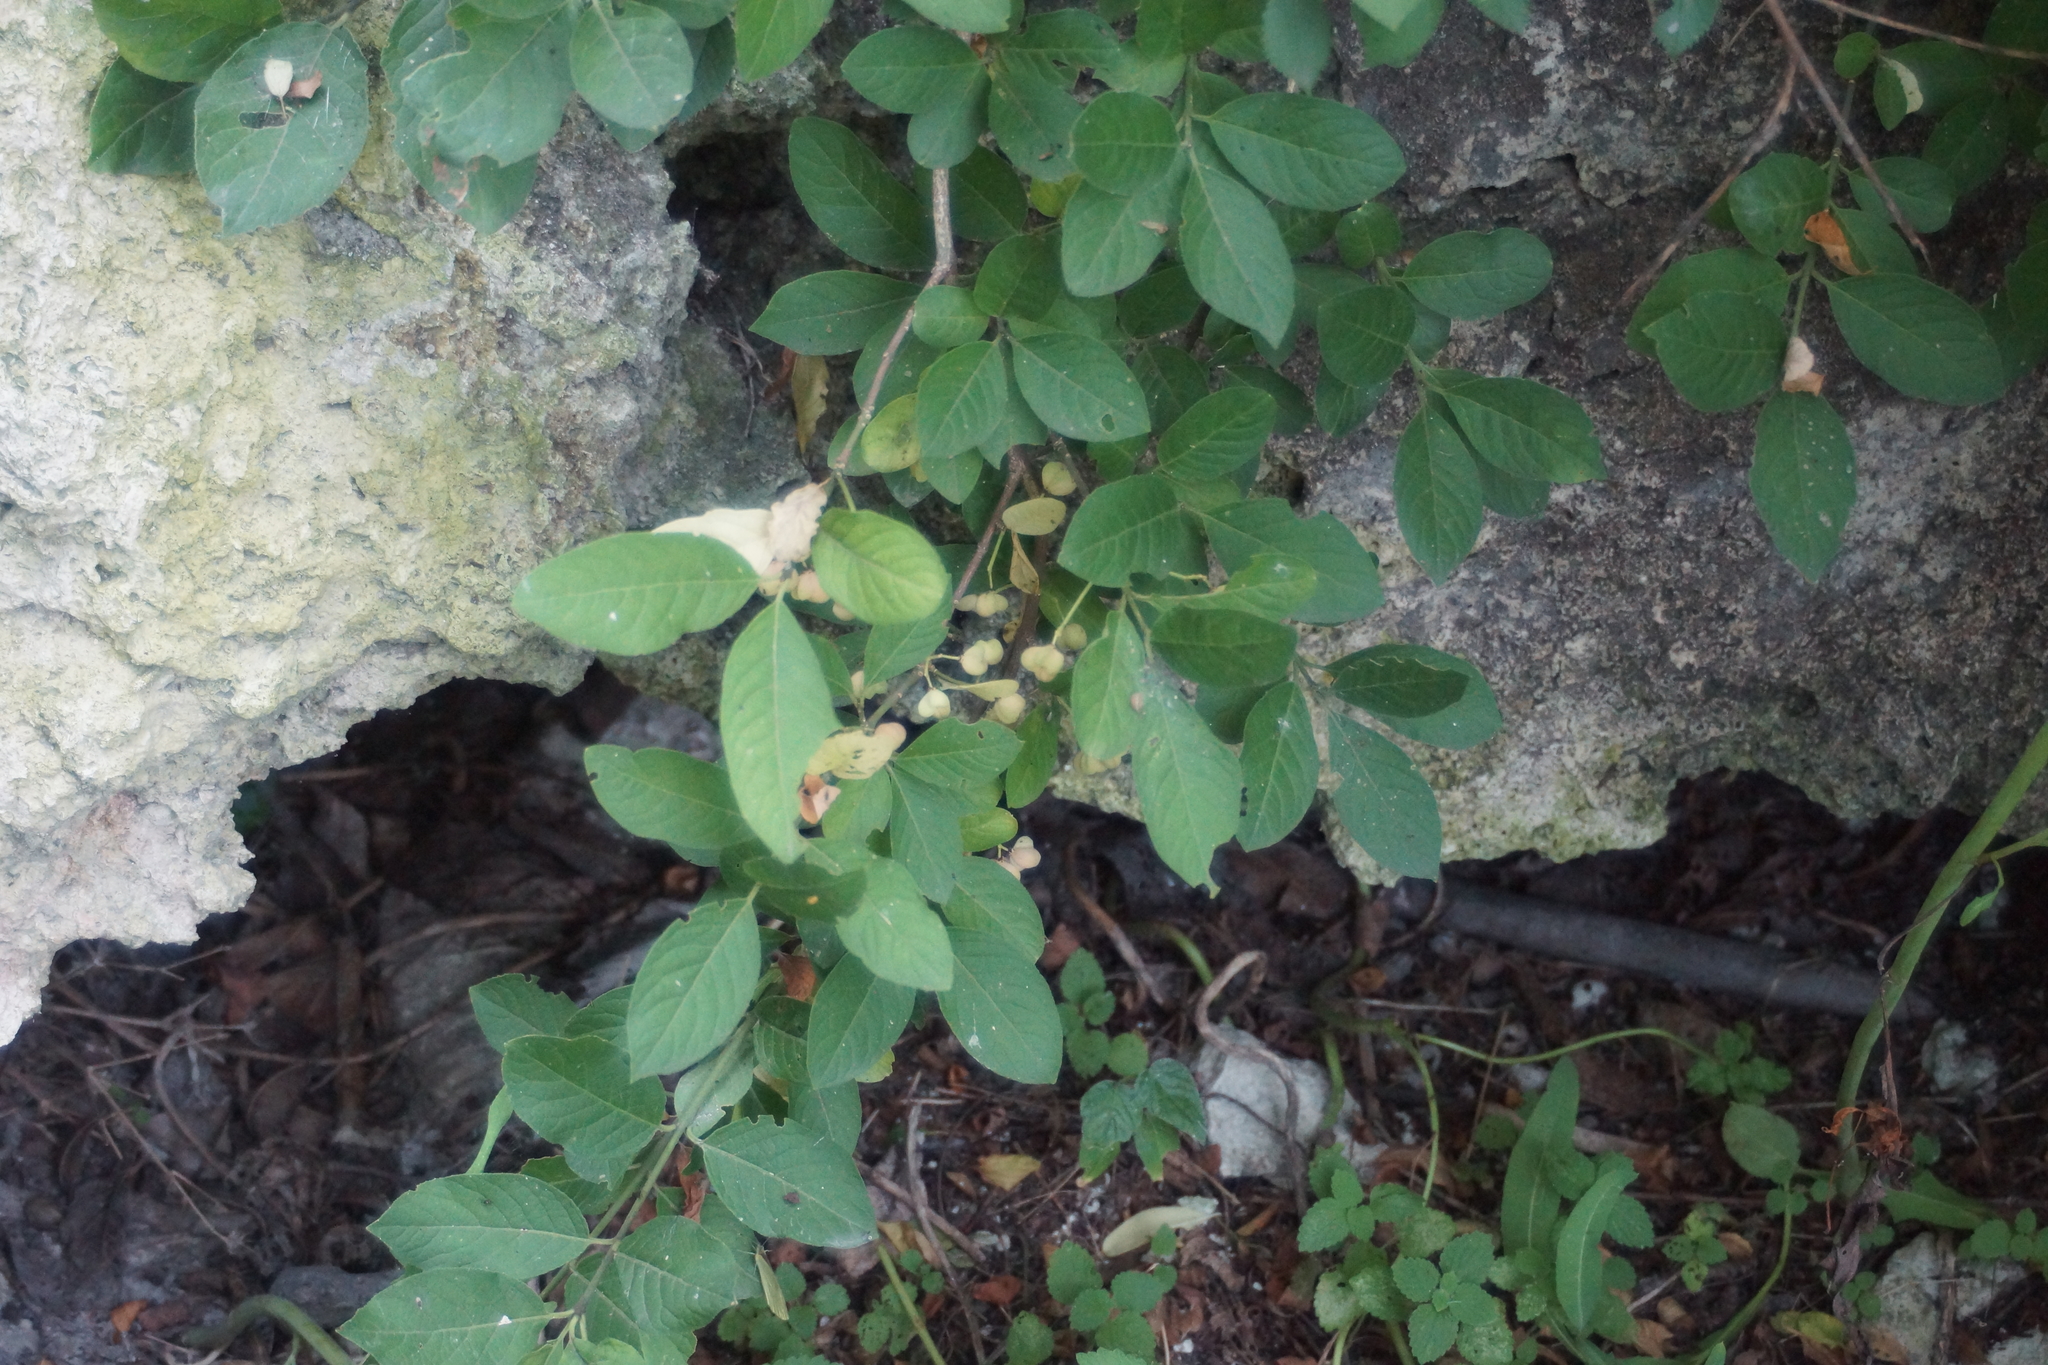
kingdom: Plantae
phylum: Tracheophyta
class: Magnoliopsida
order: Celastrales
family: Celastraceae
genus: Euonymus
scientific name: Euonymus europaeus
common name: Spindle
